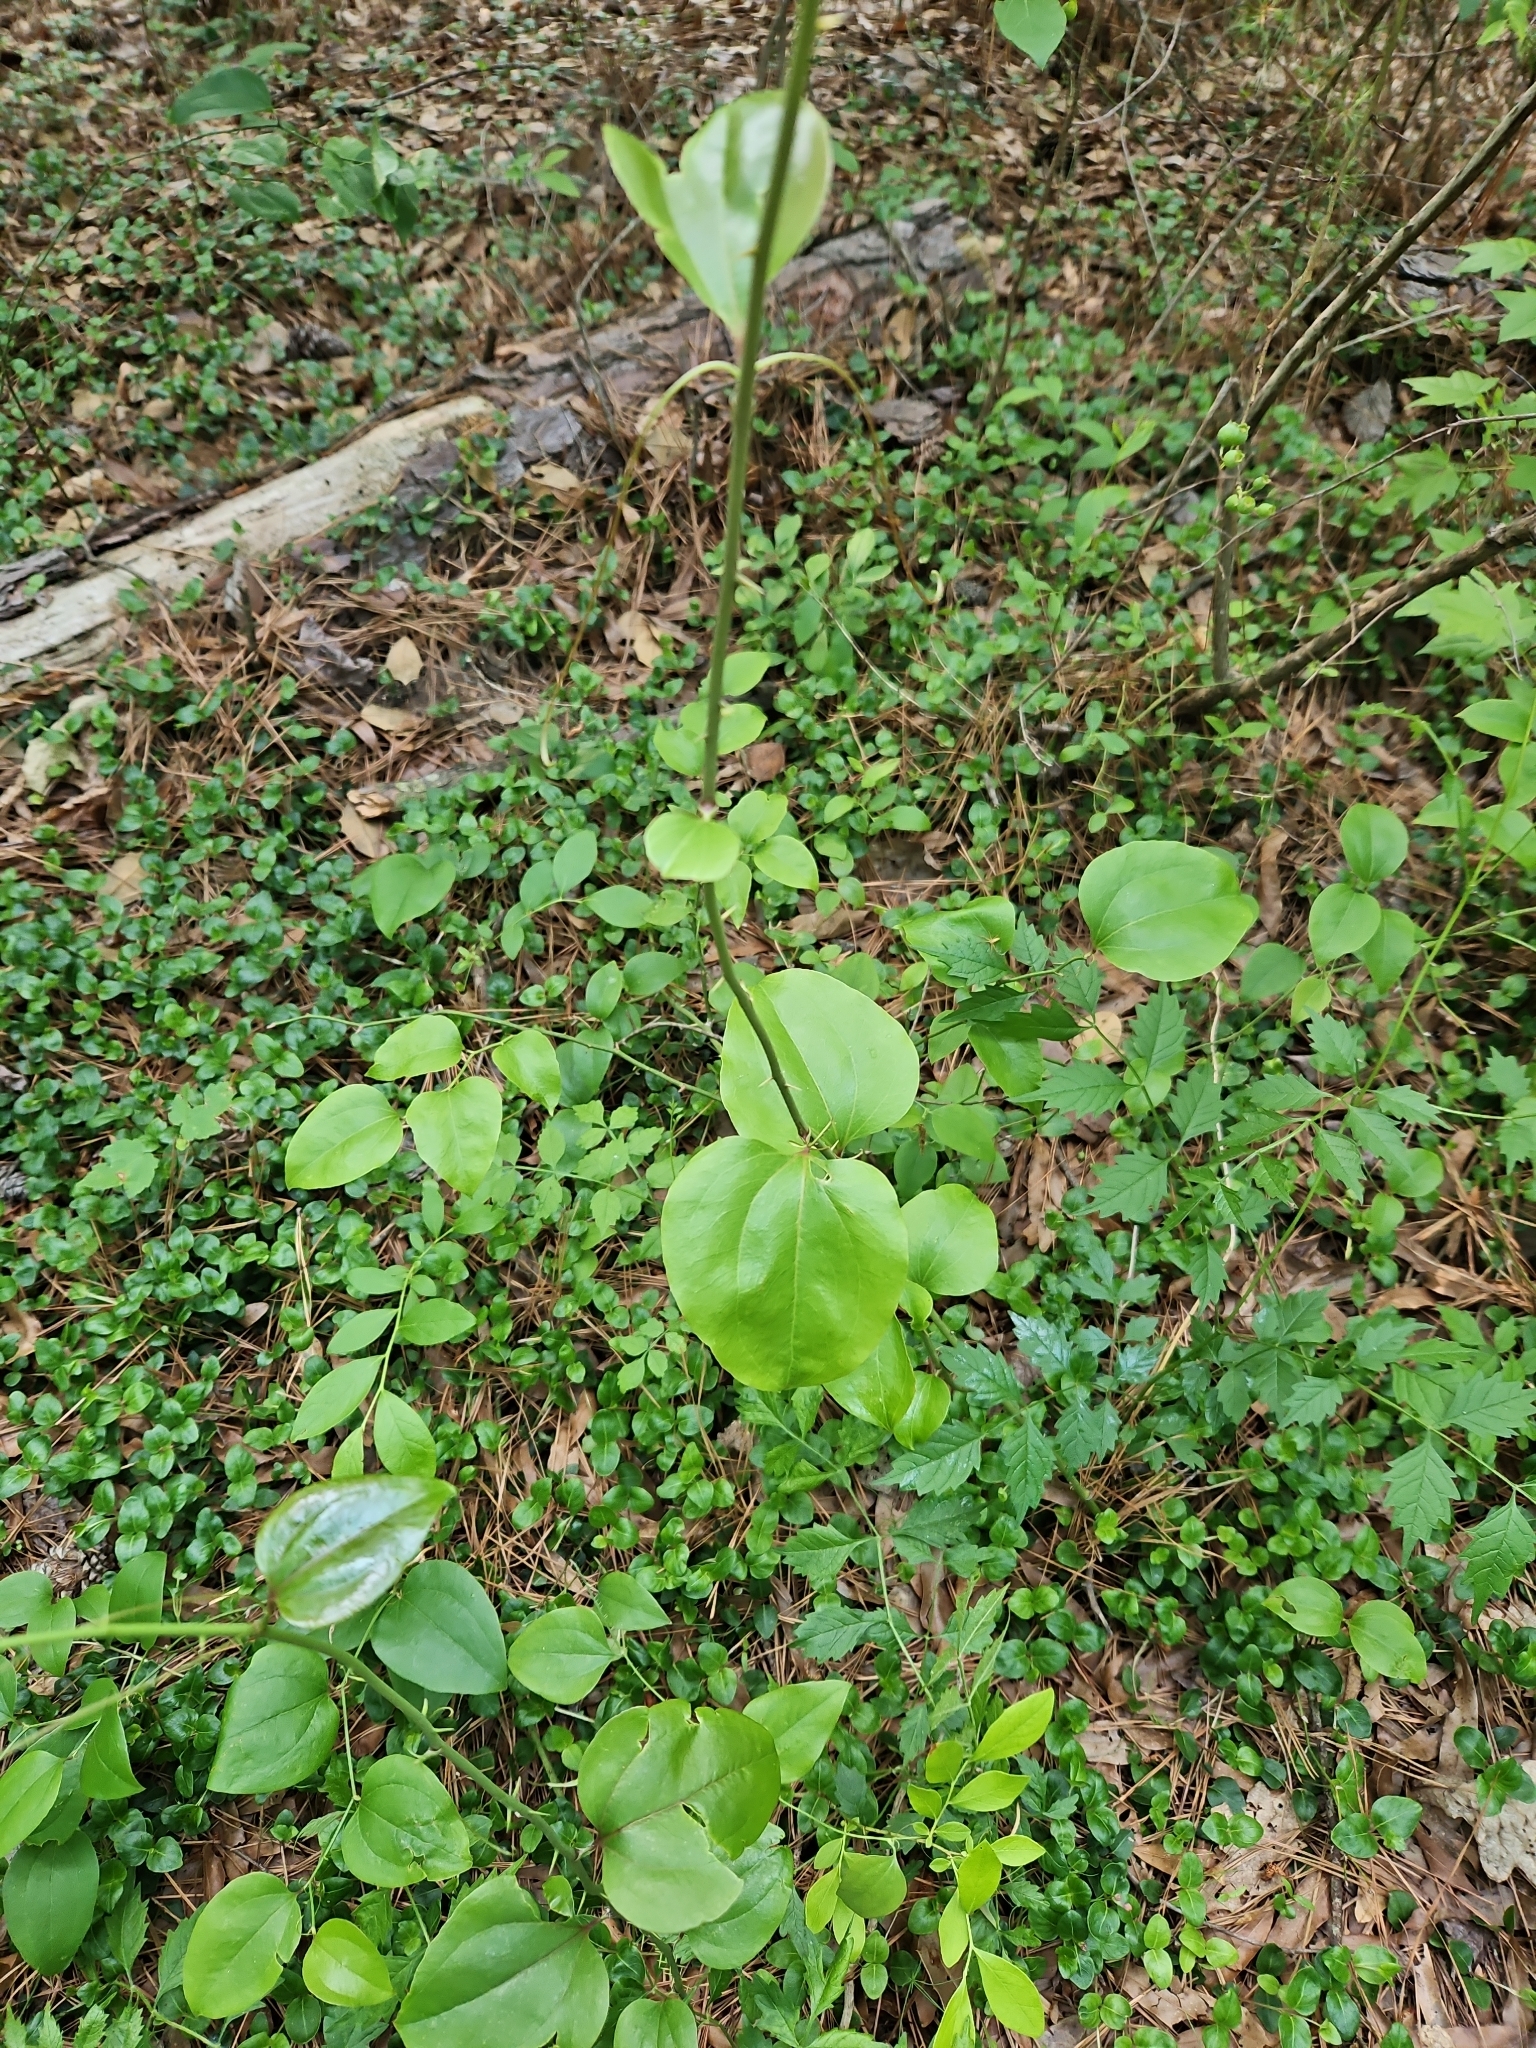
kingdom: Plantae
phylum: Tracheophyta
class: Liliopsida
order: Liliales
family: Smilacaceae
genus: Smilax
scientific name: Smilax rotundifolia
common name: Bullbriar
